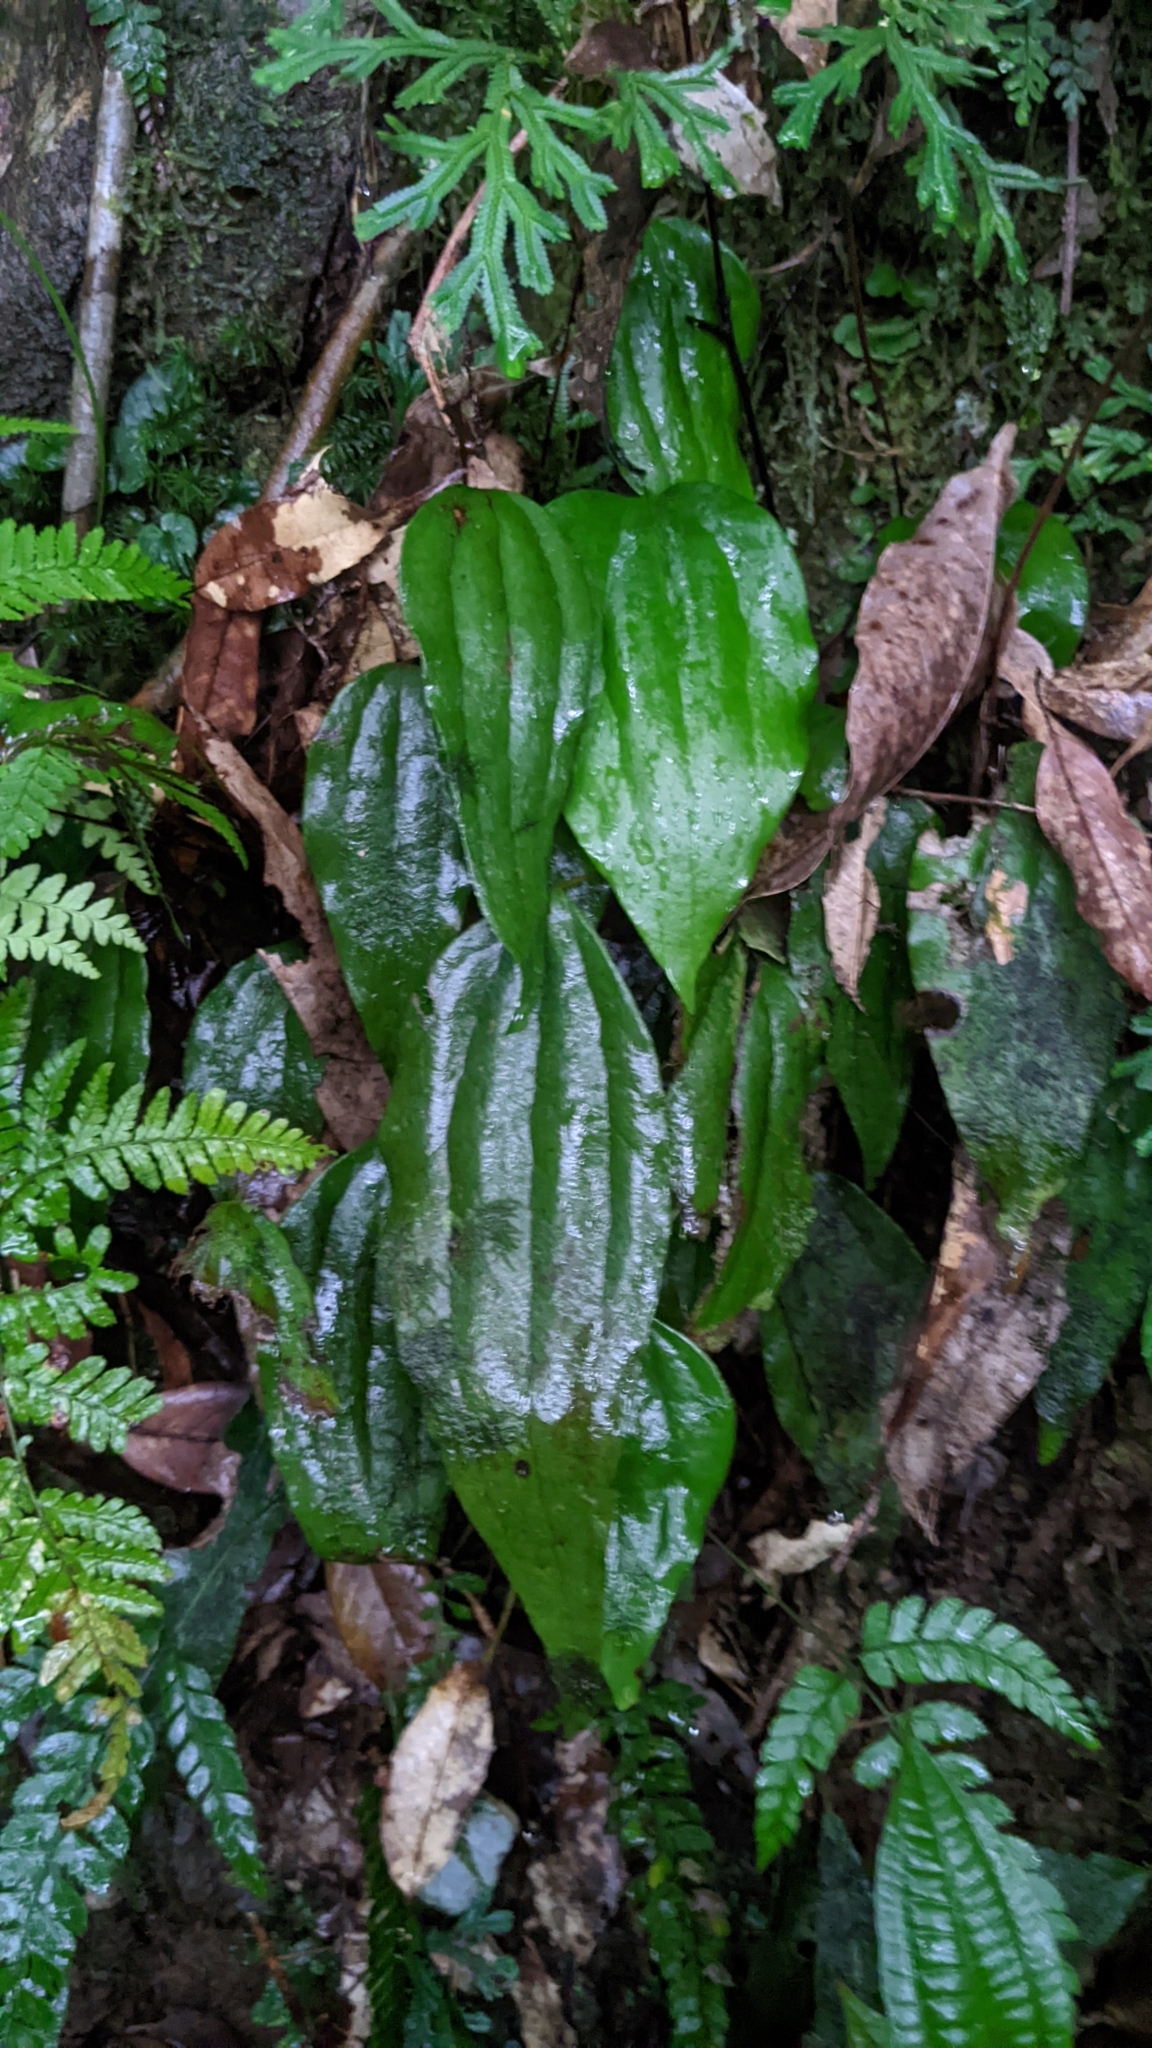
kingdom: Plantae
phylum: Tracheophyta
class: Polypodiopsida
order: Gleicheniales
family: Dipteridaceae
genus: Cheiropleuria
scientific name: Cheiropleuria integrifolia
